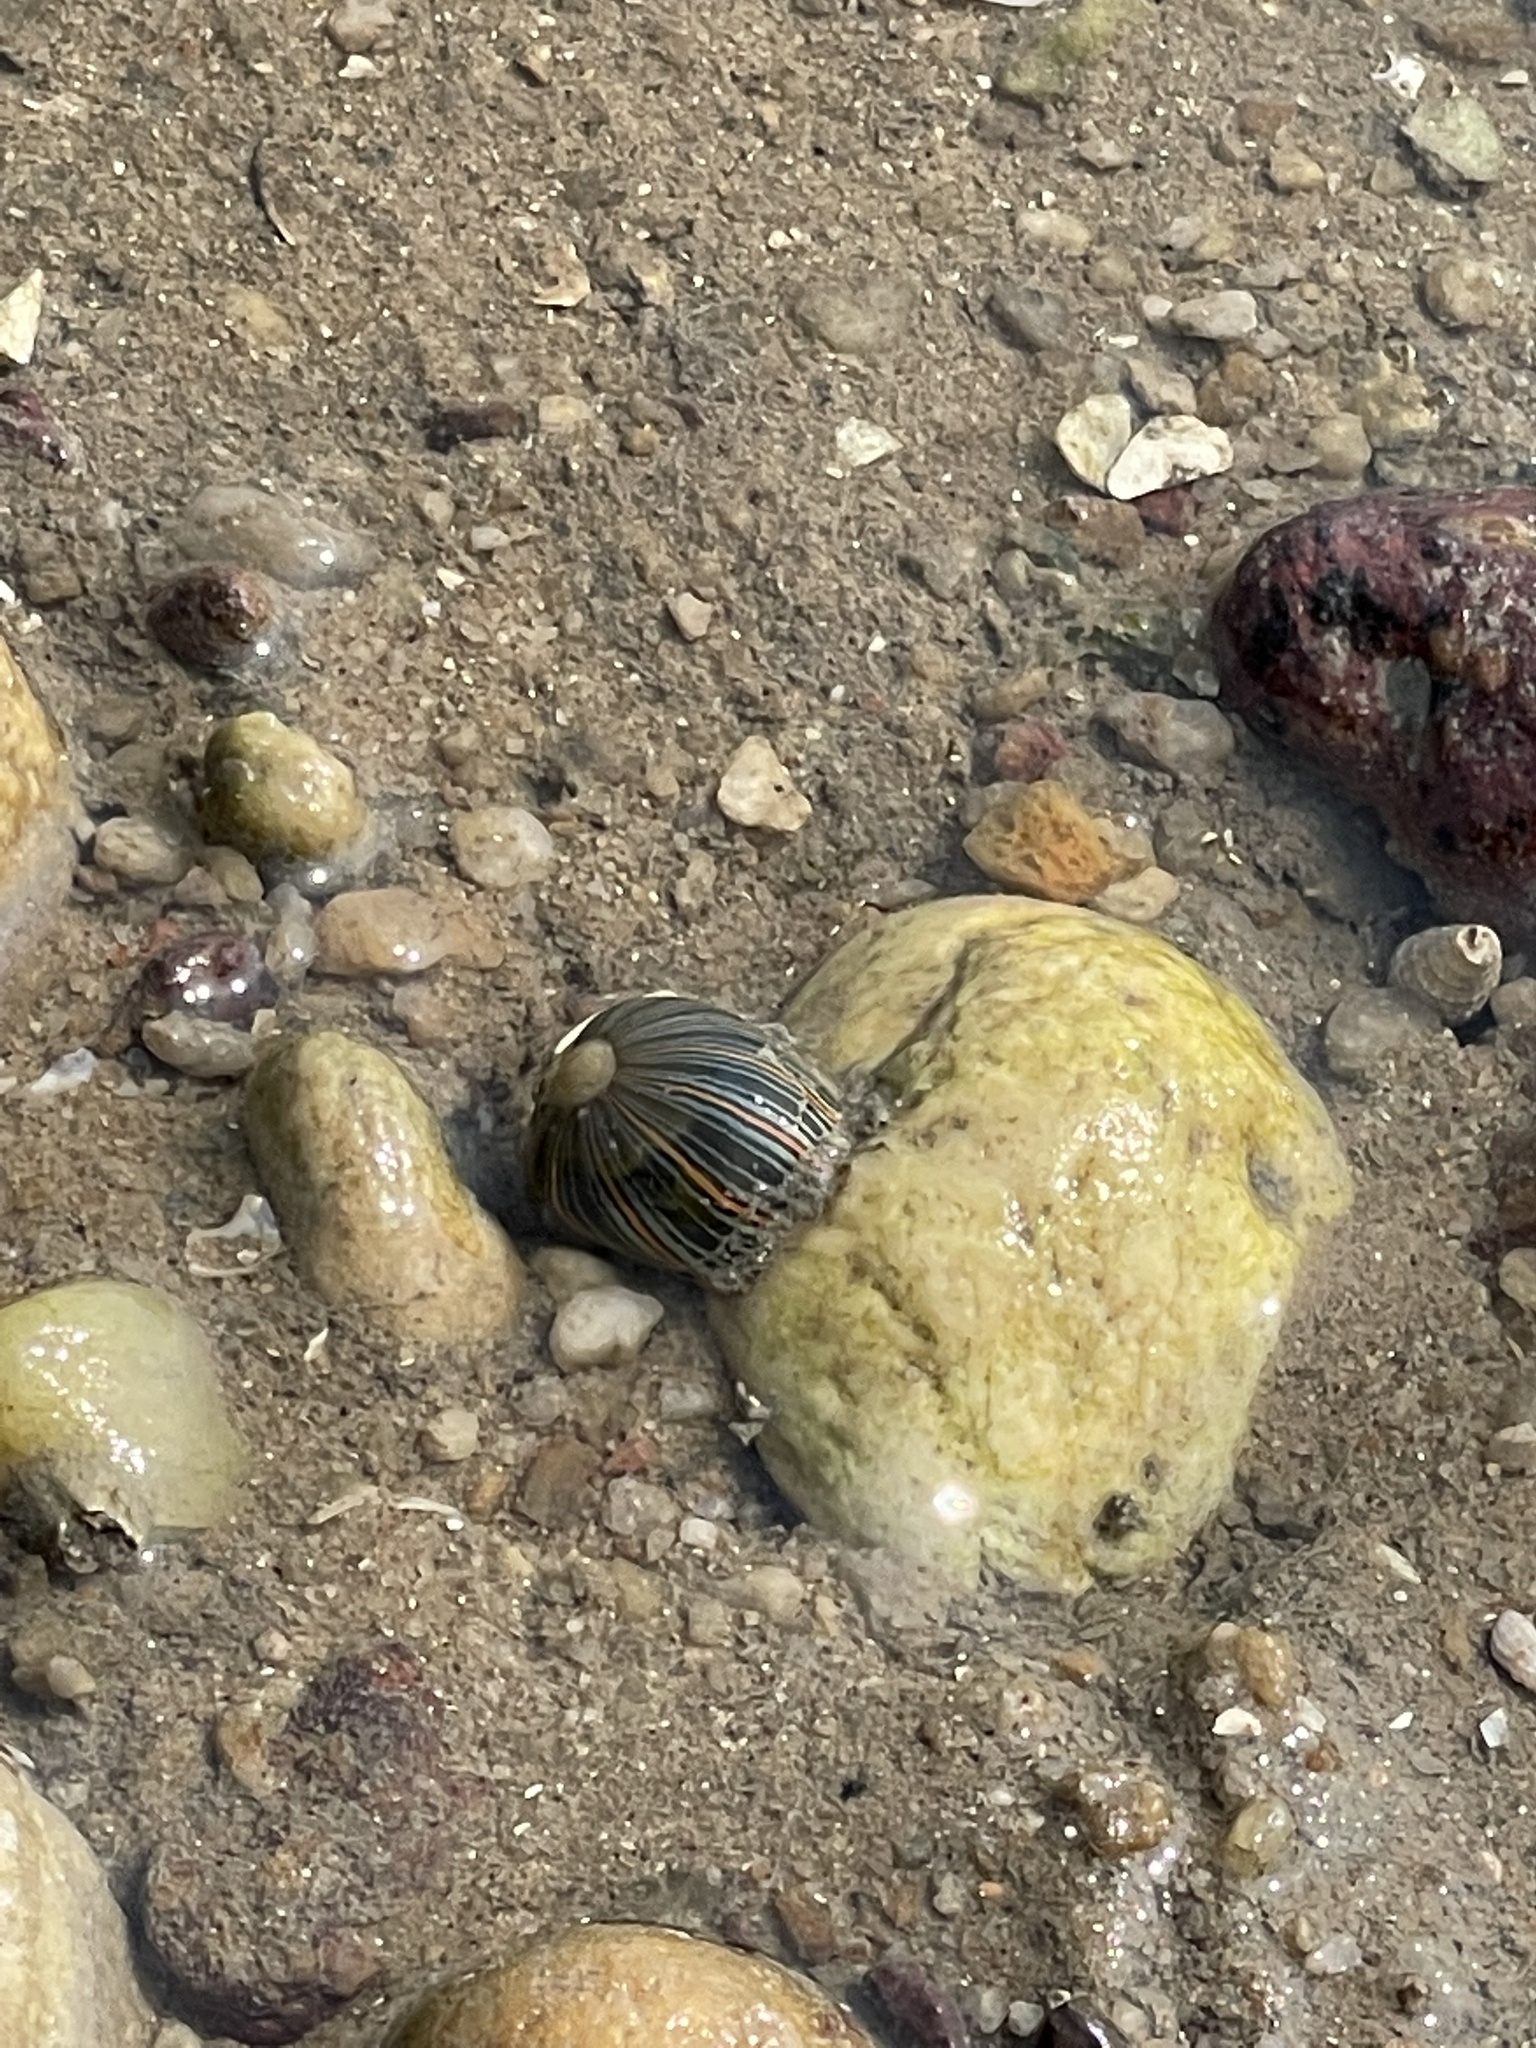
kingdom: Animalia
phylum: Cnidaria
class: Anthozoa
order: Actiniaria
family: Diadumenidae
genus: Diadumene
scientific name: Diadumene lineata
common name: Orange-striped anemone
